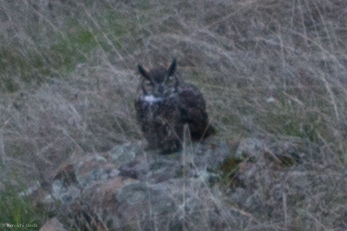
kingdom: Animalia
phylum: Chordata
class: Aves
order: Strigiformes
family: Strigidae
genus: Bubo
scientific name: Bubo virginianus
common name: Great horned owl
